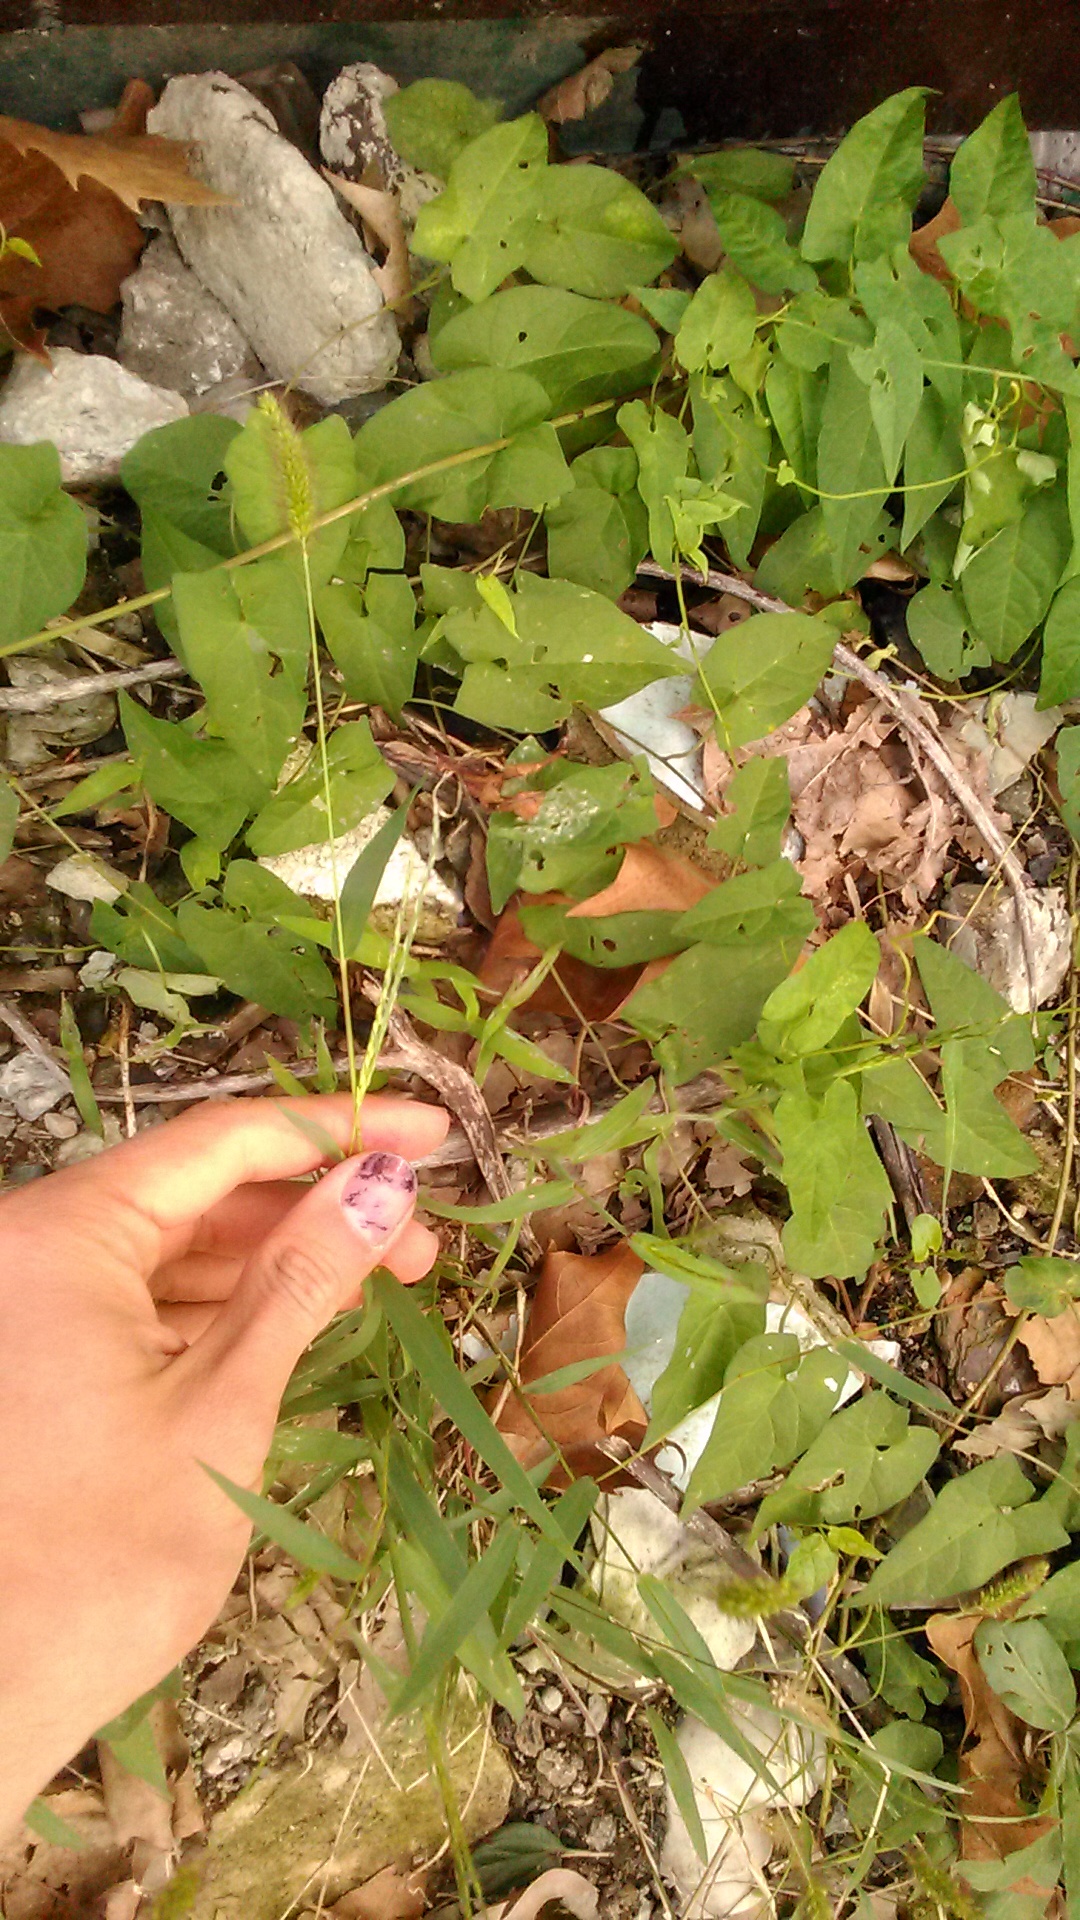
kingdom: Plantae
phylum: Tracheophyta
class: Liliopsida
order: Poales
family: Poaceae
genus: Setaria
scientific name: Setaria viridis
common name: Green bristlegrass
